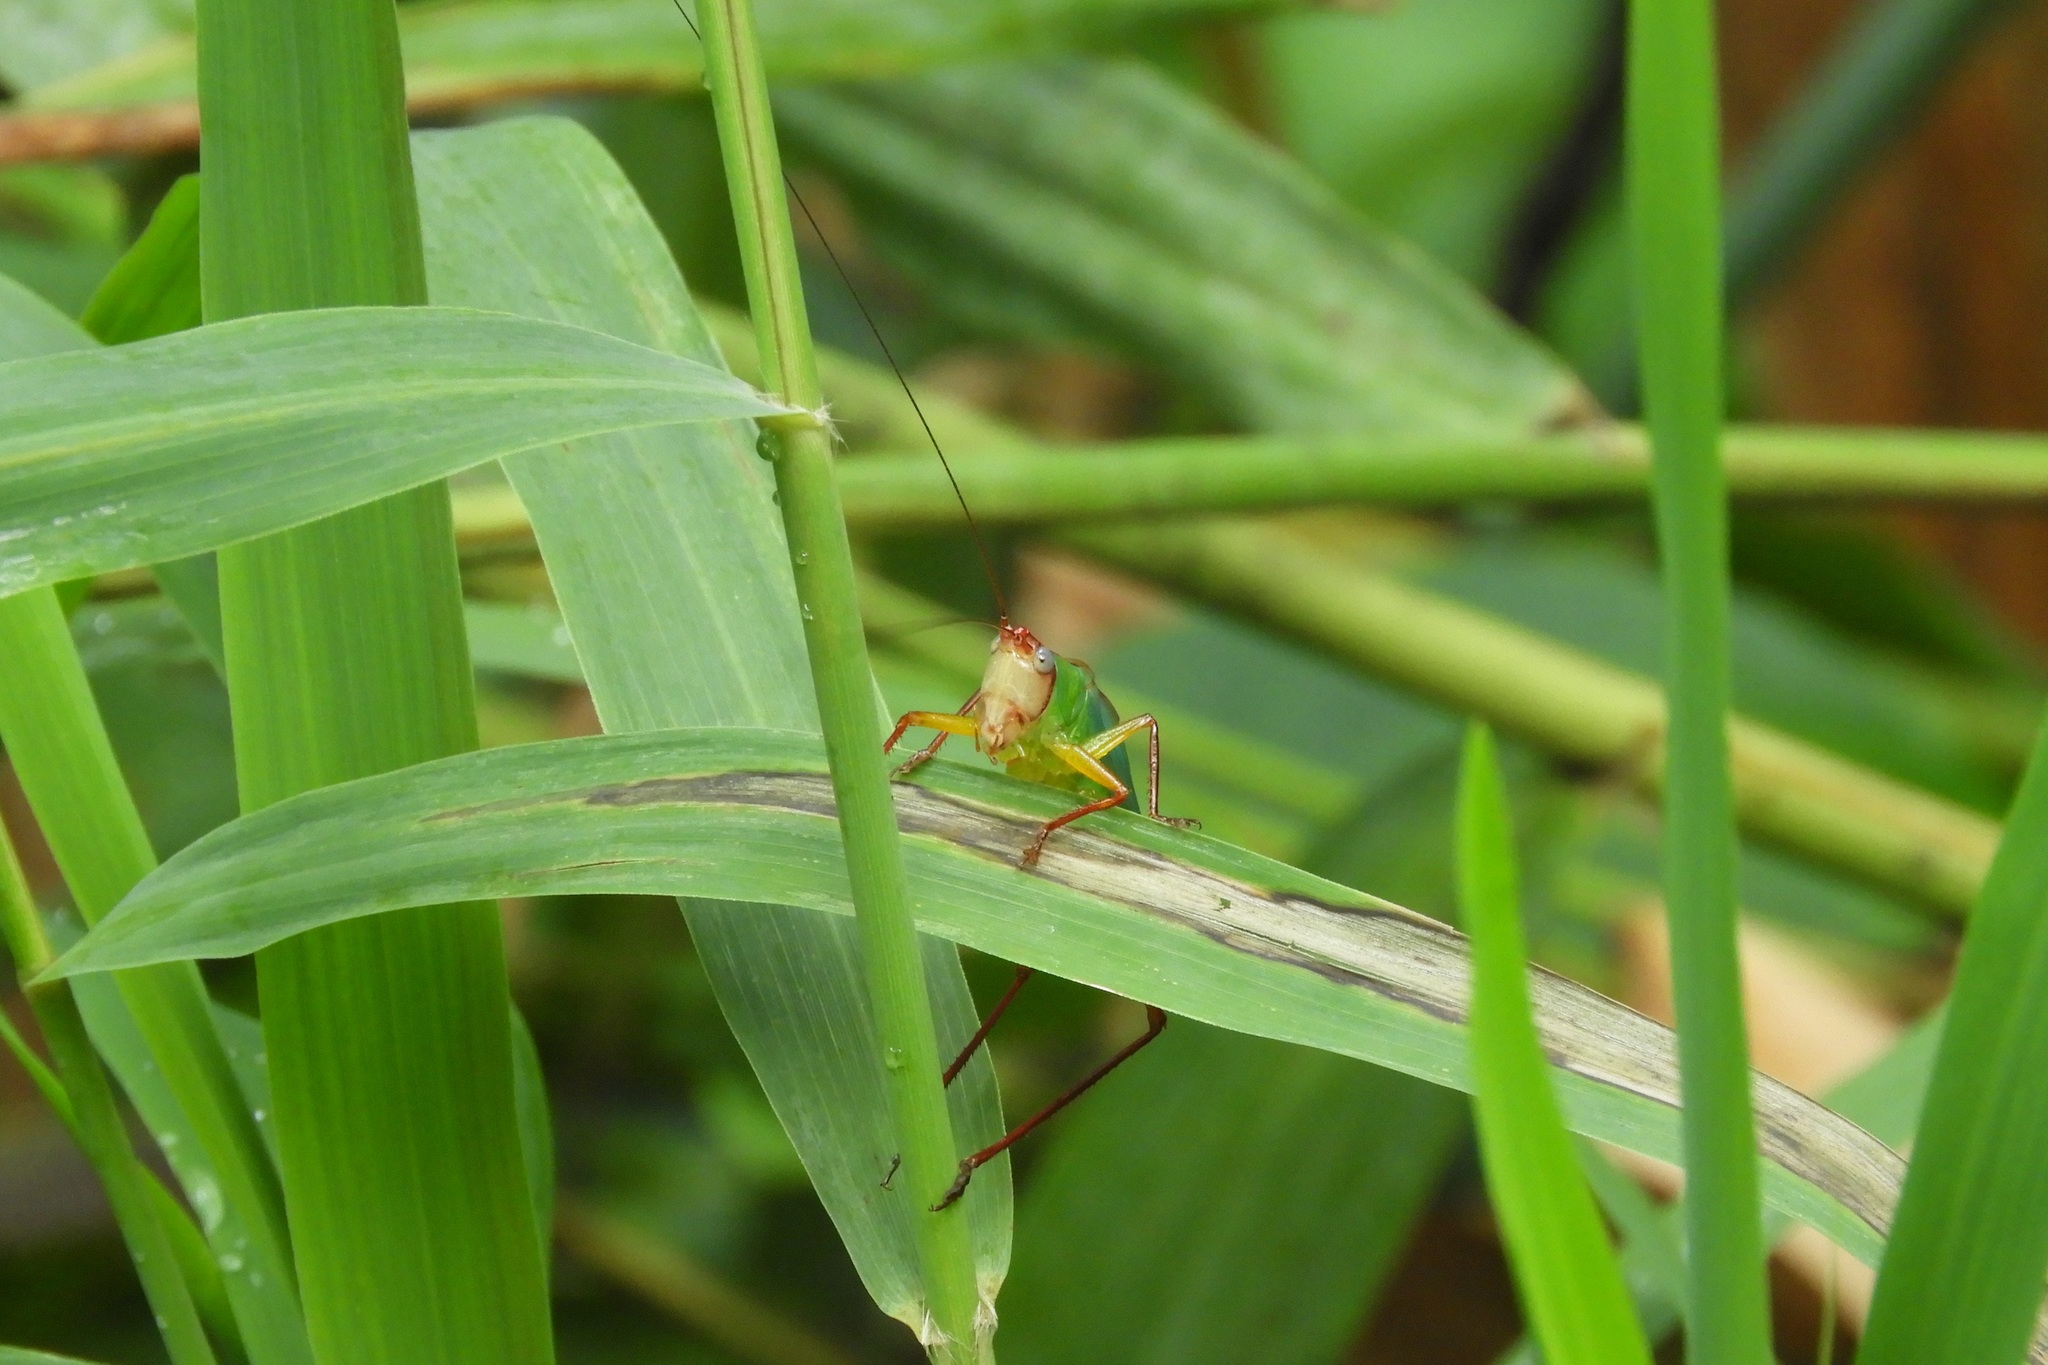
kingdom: Animalia
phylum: Arthropoda
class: Insecta
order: Orthoptera
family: Tettigoniidae
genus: Orchelimum
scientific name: Orchelimum pulchellum
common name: Handsome meadow katydid
